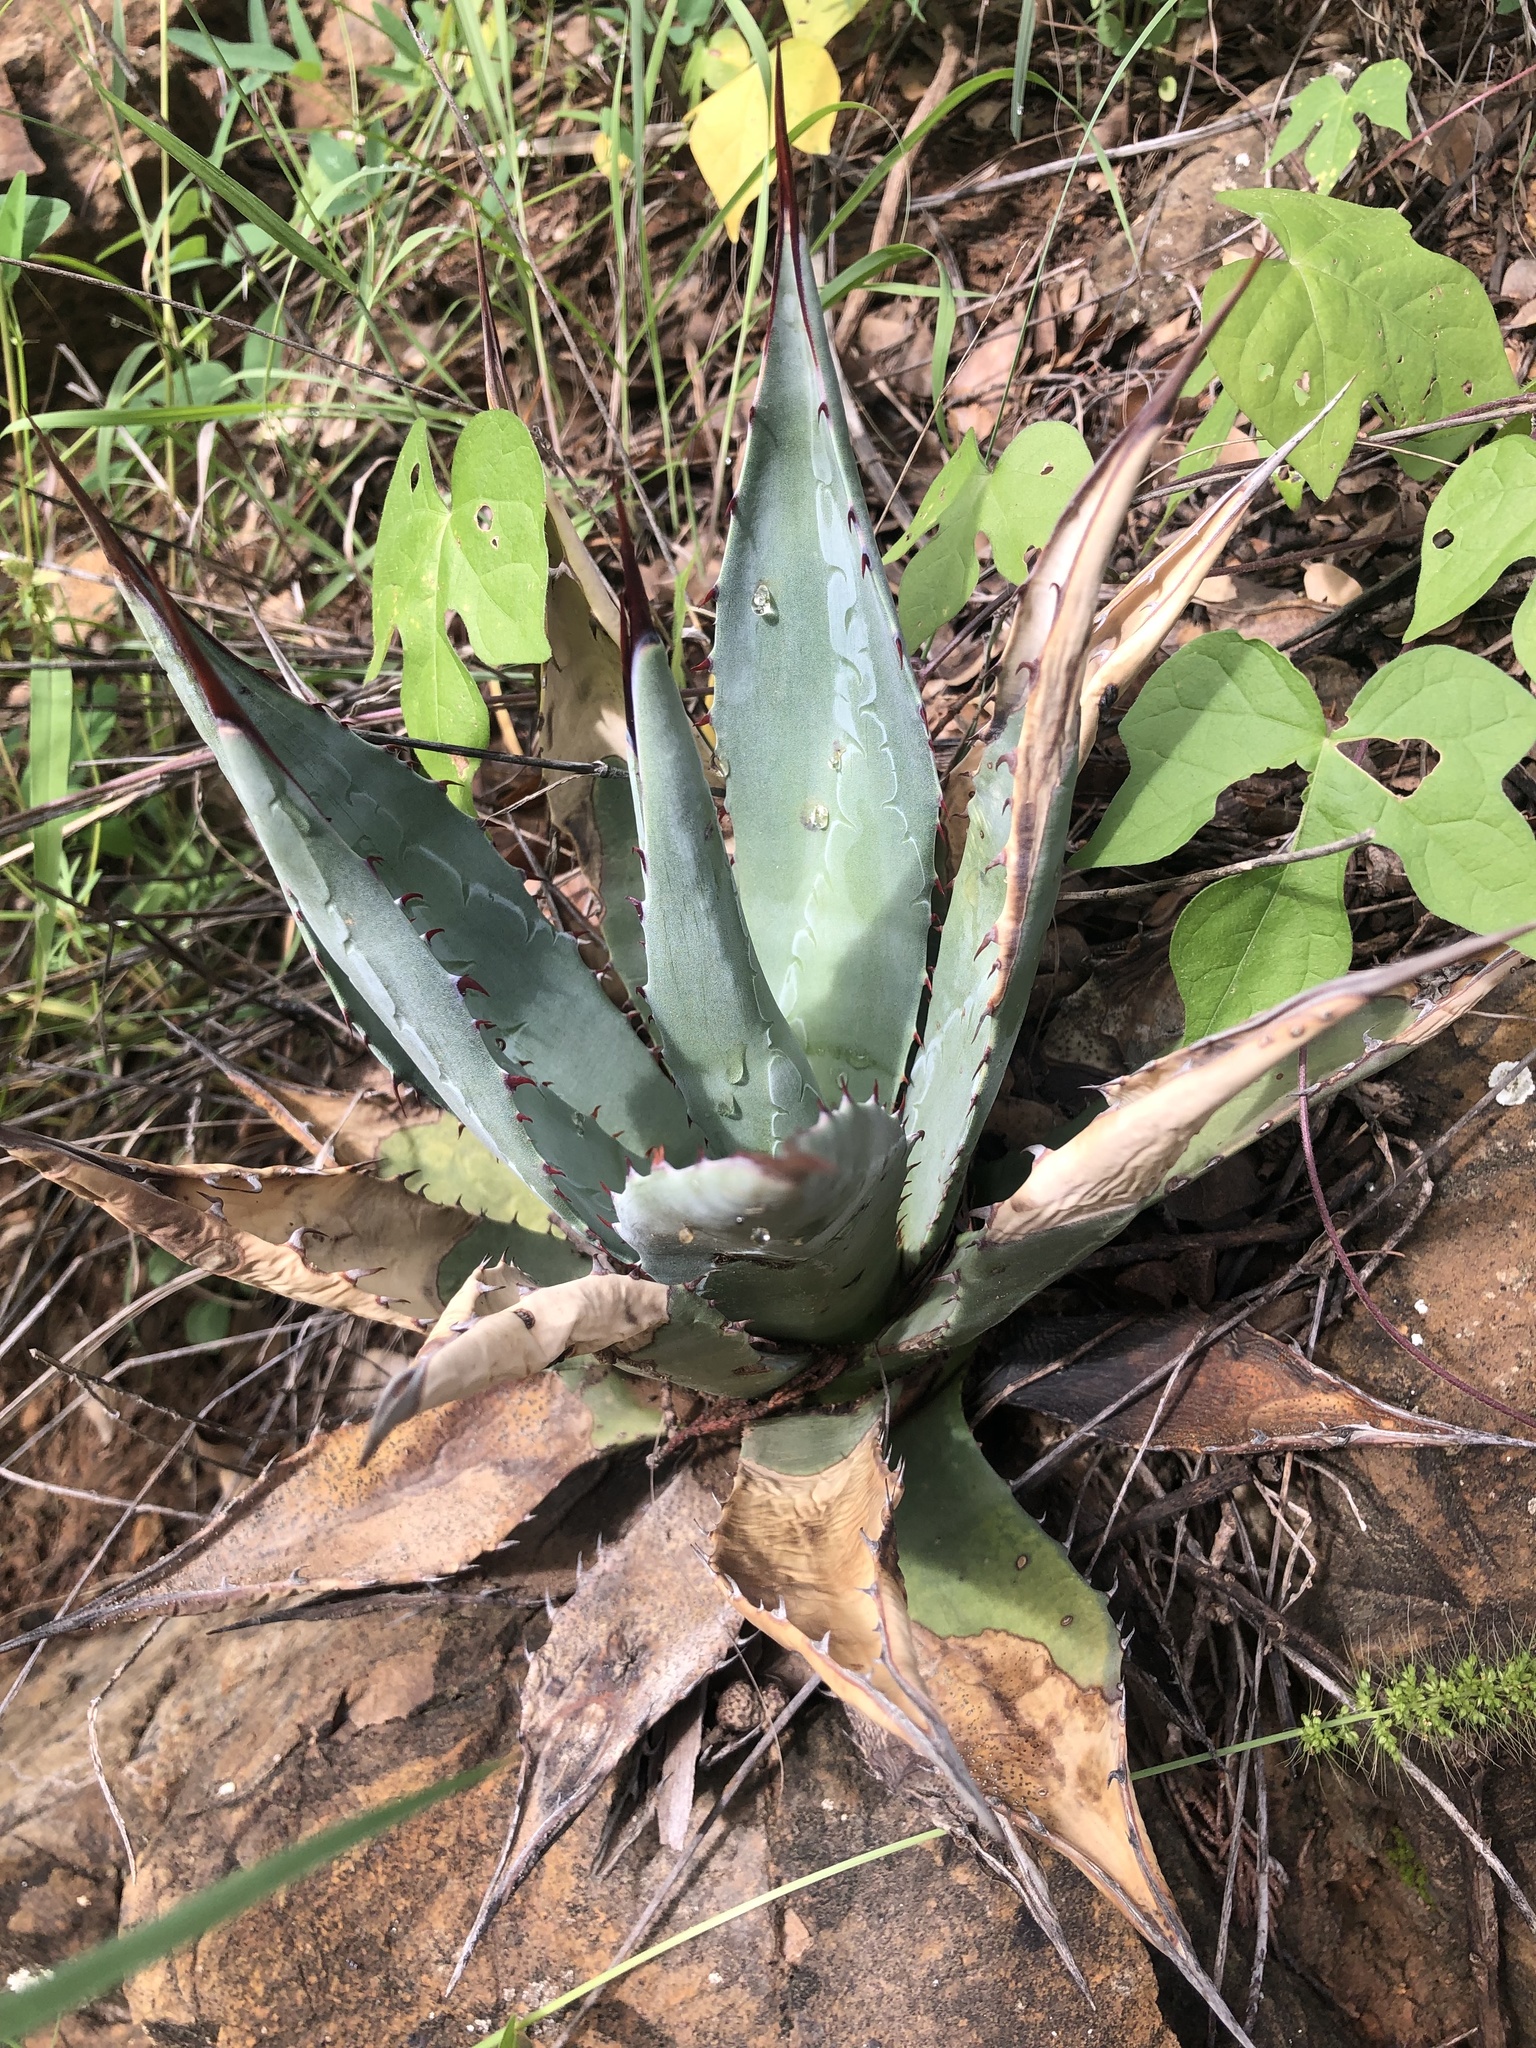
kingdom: Plantae
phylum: Tracheophyta
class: Liliopsida
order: Asparagales
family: Asparagaceae
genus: Agave
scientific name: Agave palmeri
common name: Palmer agave
